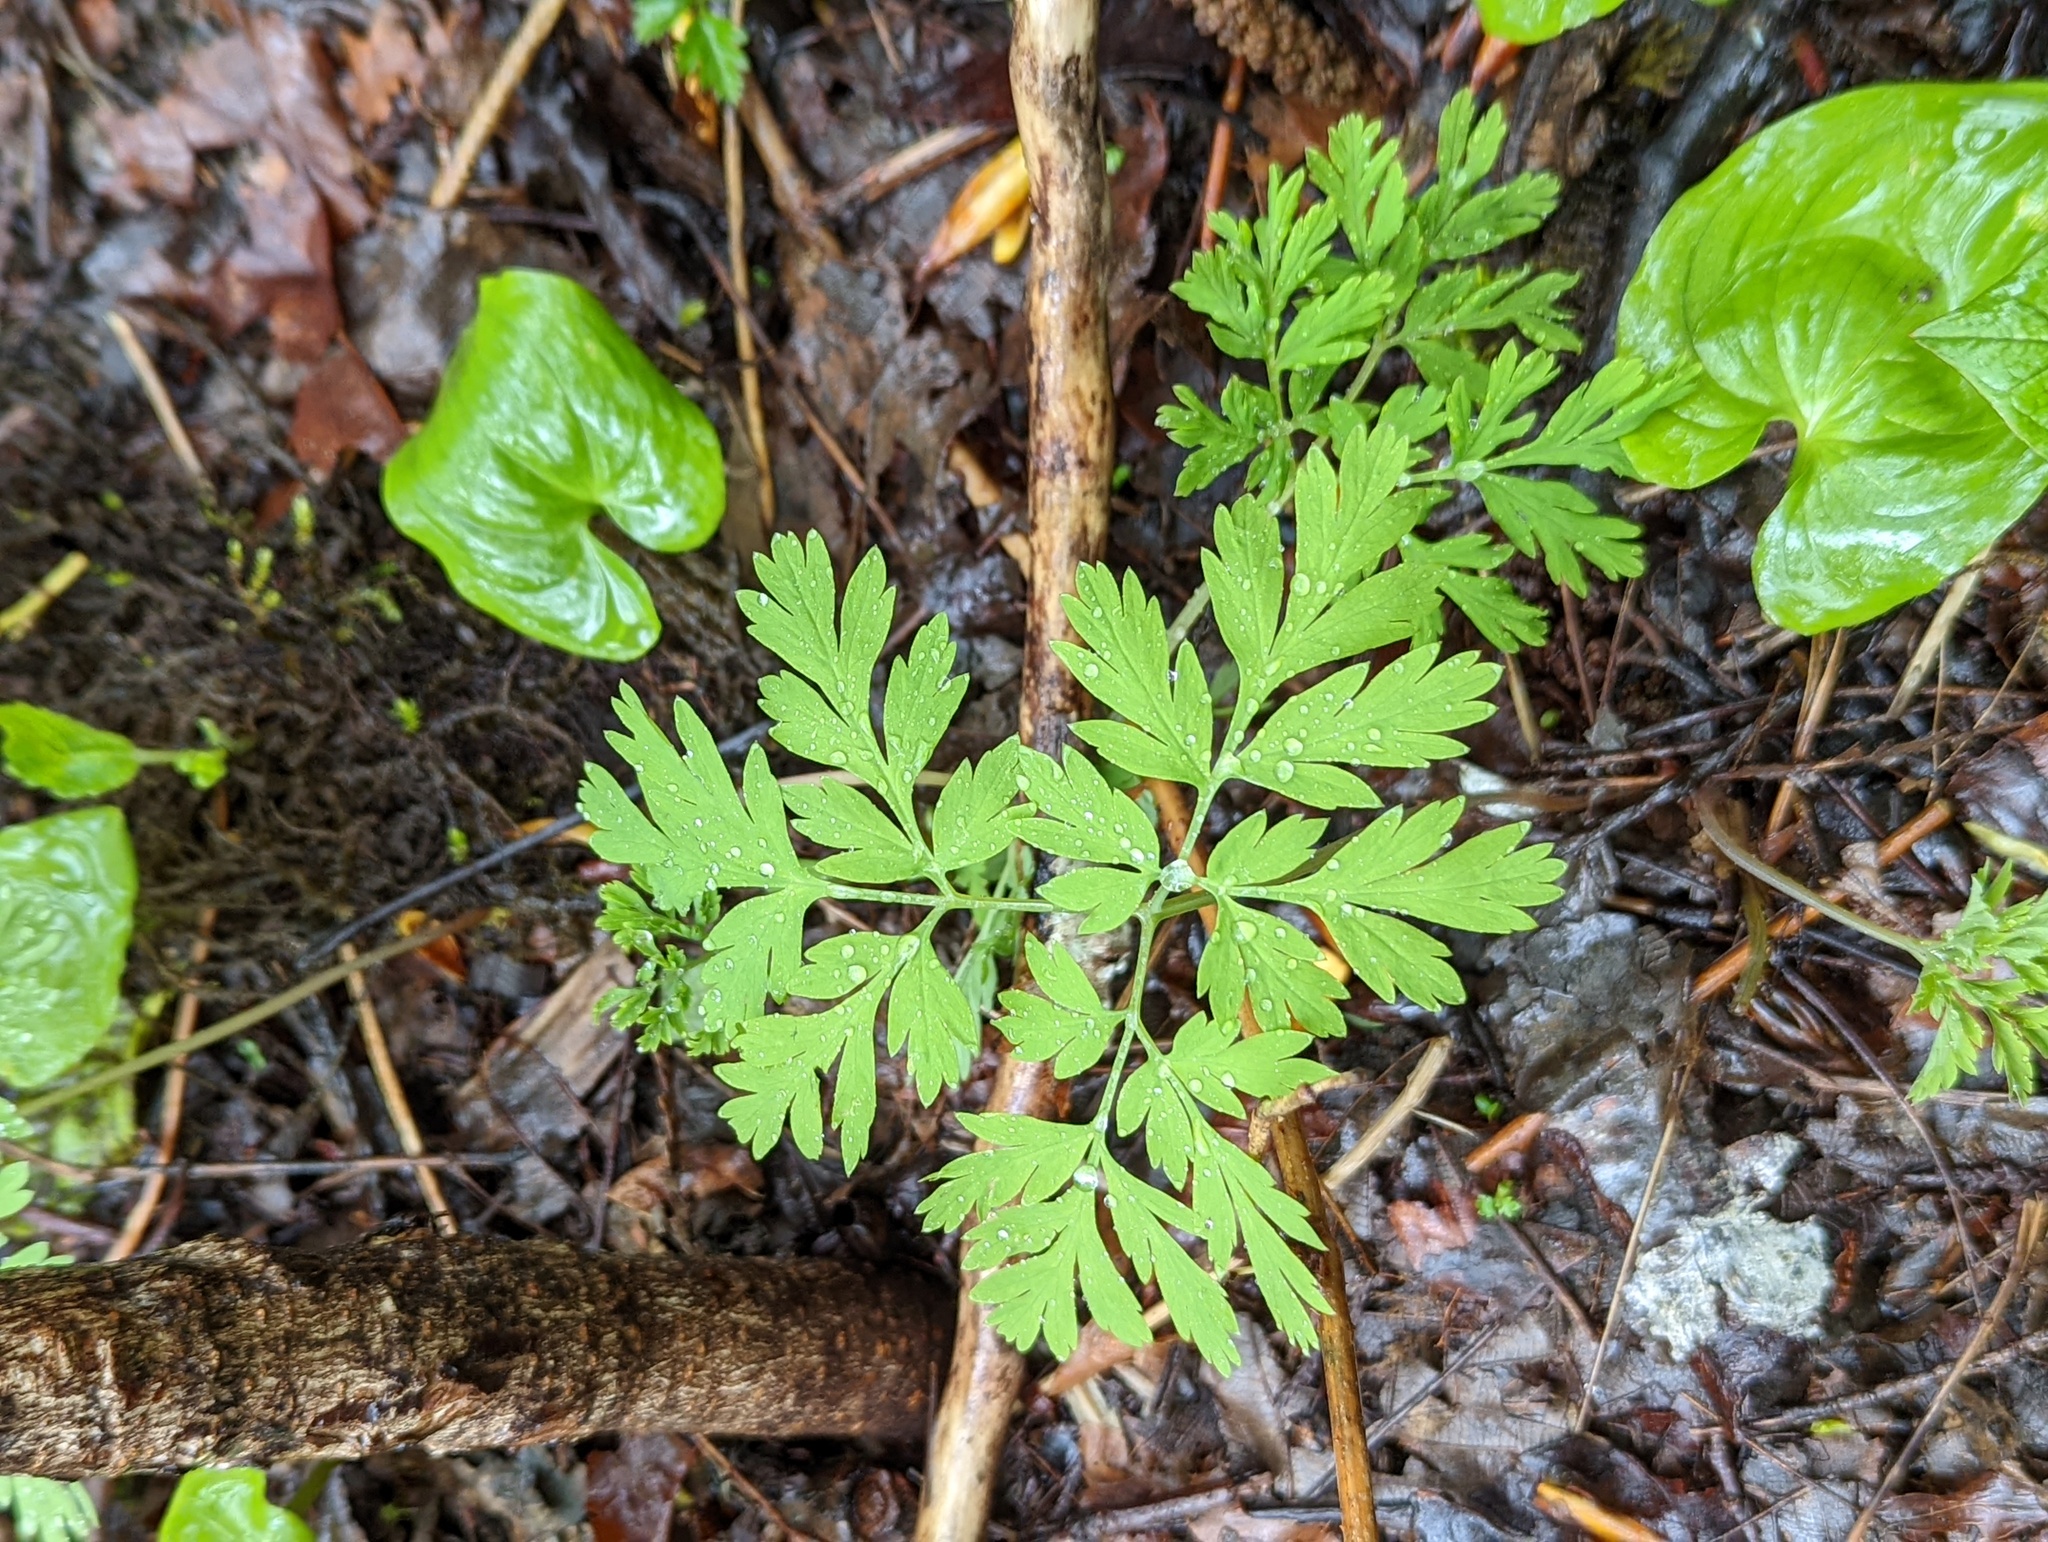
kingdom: Plantae
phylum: Tracheophyta
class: Magnoliopsida
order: Ranunculales
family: Papaveraceae
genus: Dicentra
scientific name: Dicentra formosa
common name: Bleeding-heart
